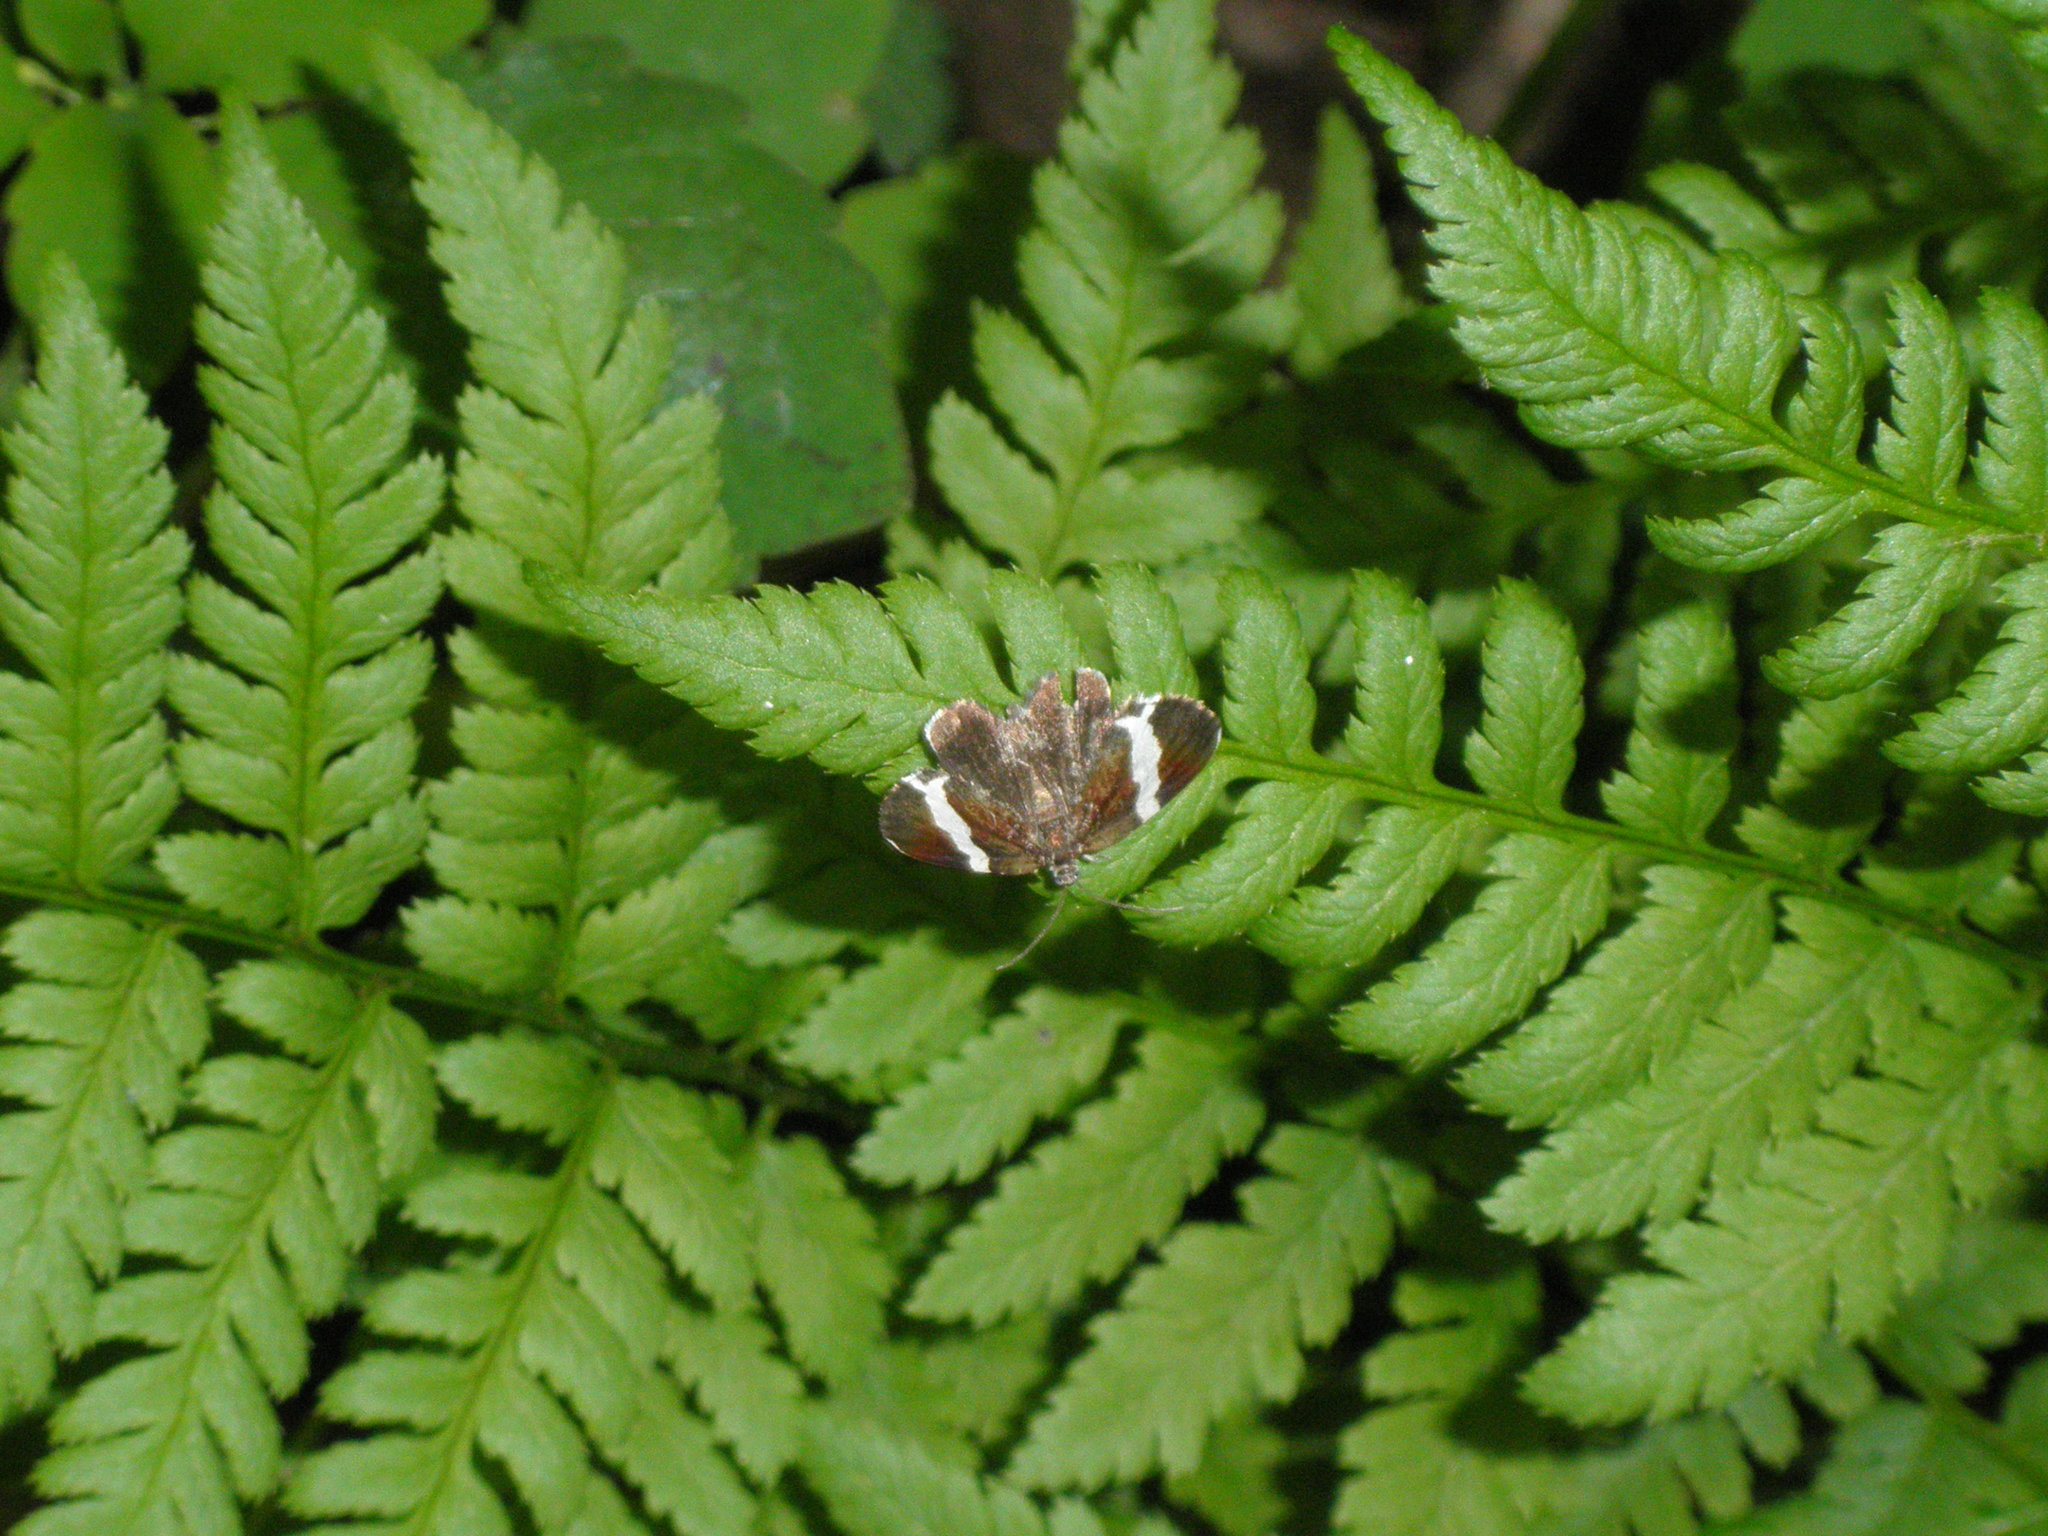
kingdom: Animalia
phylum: Arthropoda
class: Insecta
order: Lepidoptera
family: Geometridae
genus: Trichodezia
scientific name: Trichodezia albovittata
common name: White striped black
